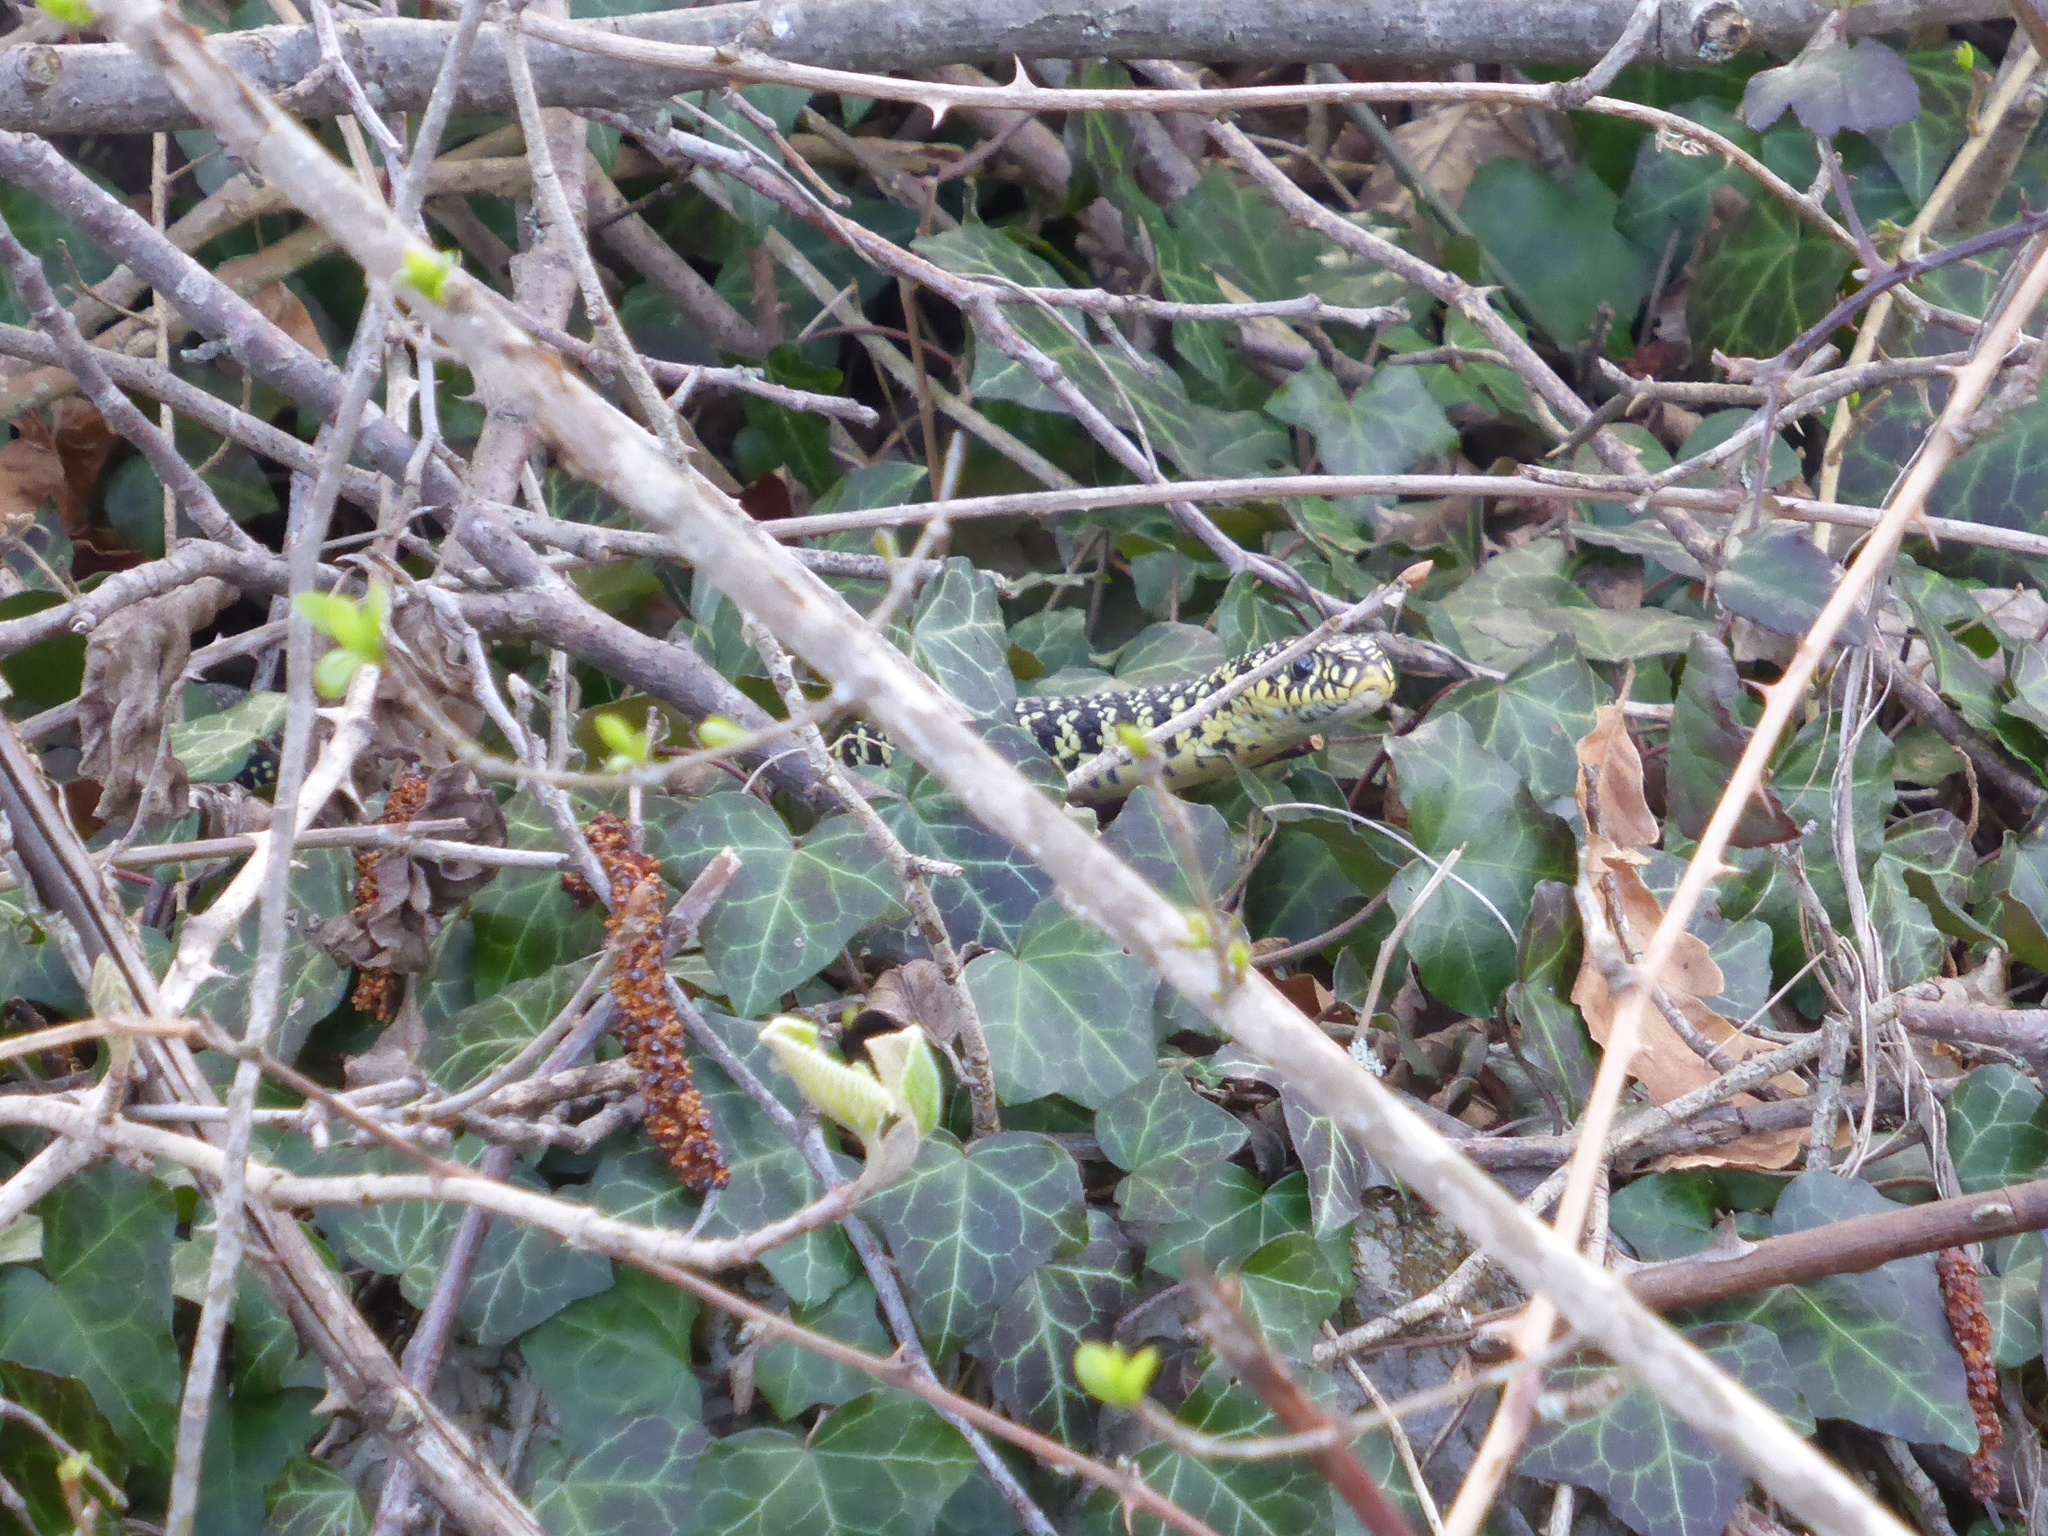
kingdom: Animalia
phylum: Chordata
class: Squamata
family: Colubridae
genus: Hierophis
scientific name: Hierophis viridiflavus
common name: Green whip snake
